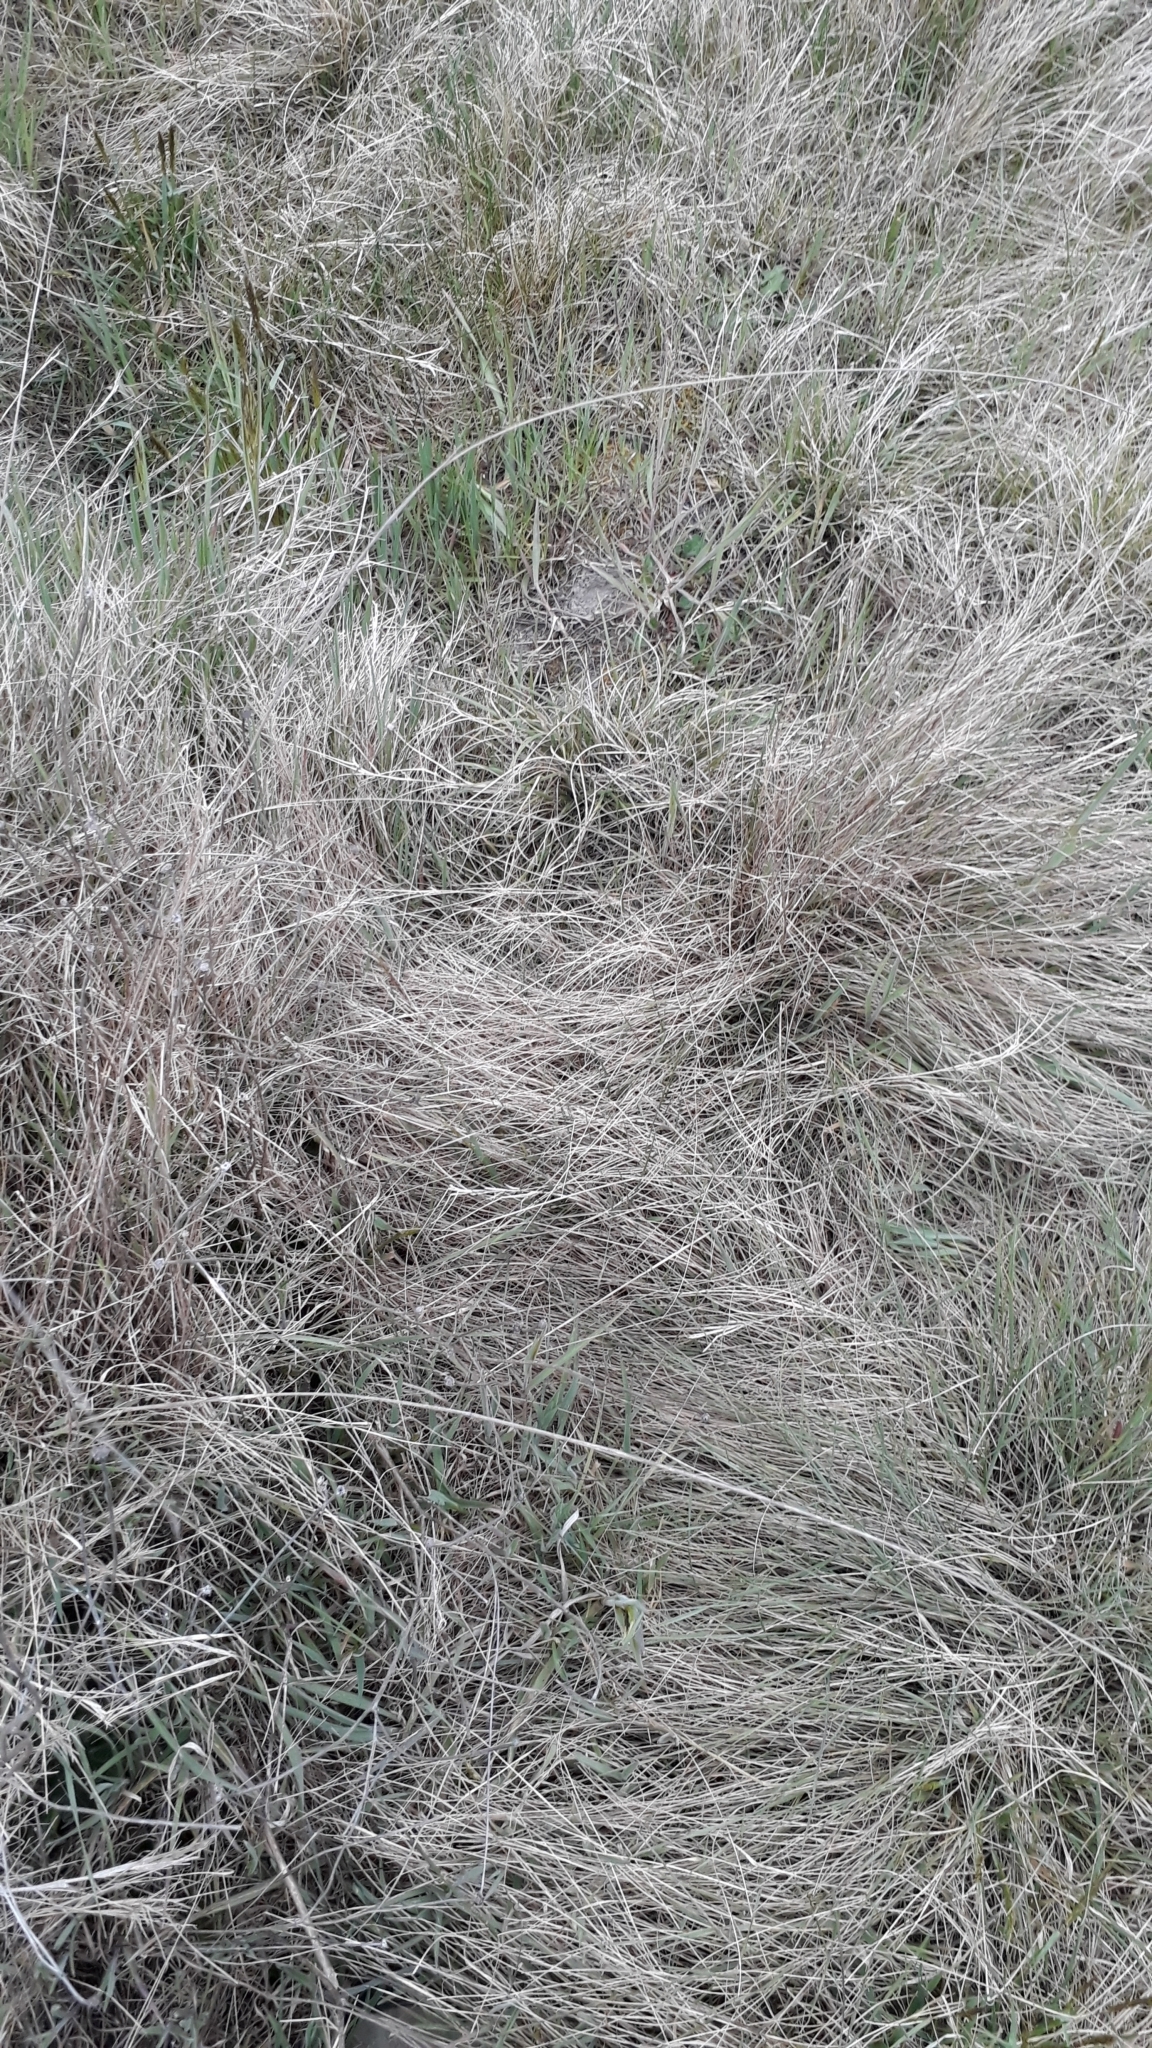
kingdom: Plantae
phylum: Tracheophyta
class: Liliopsida
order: Poales
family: Poaceae
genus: Anthosachne
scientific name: Anthosachne solandri
